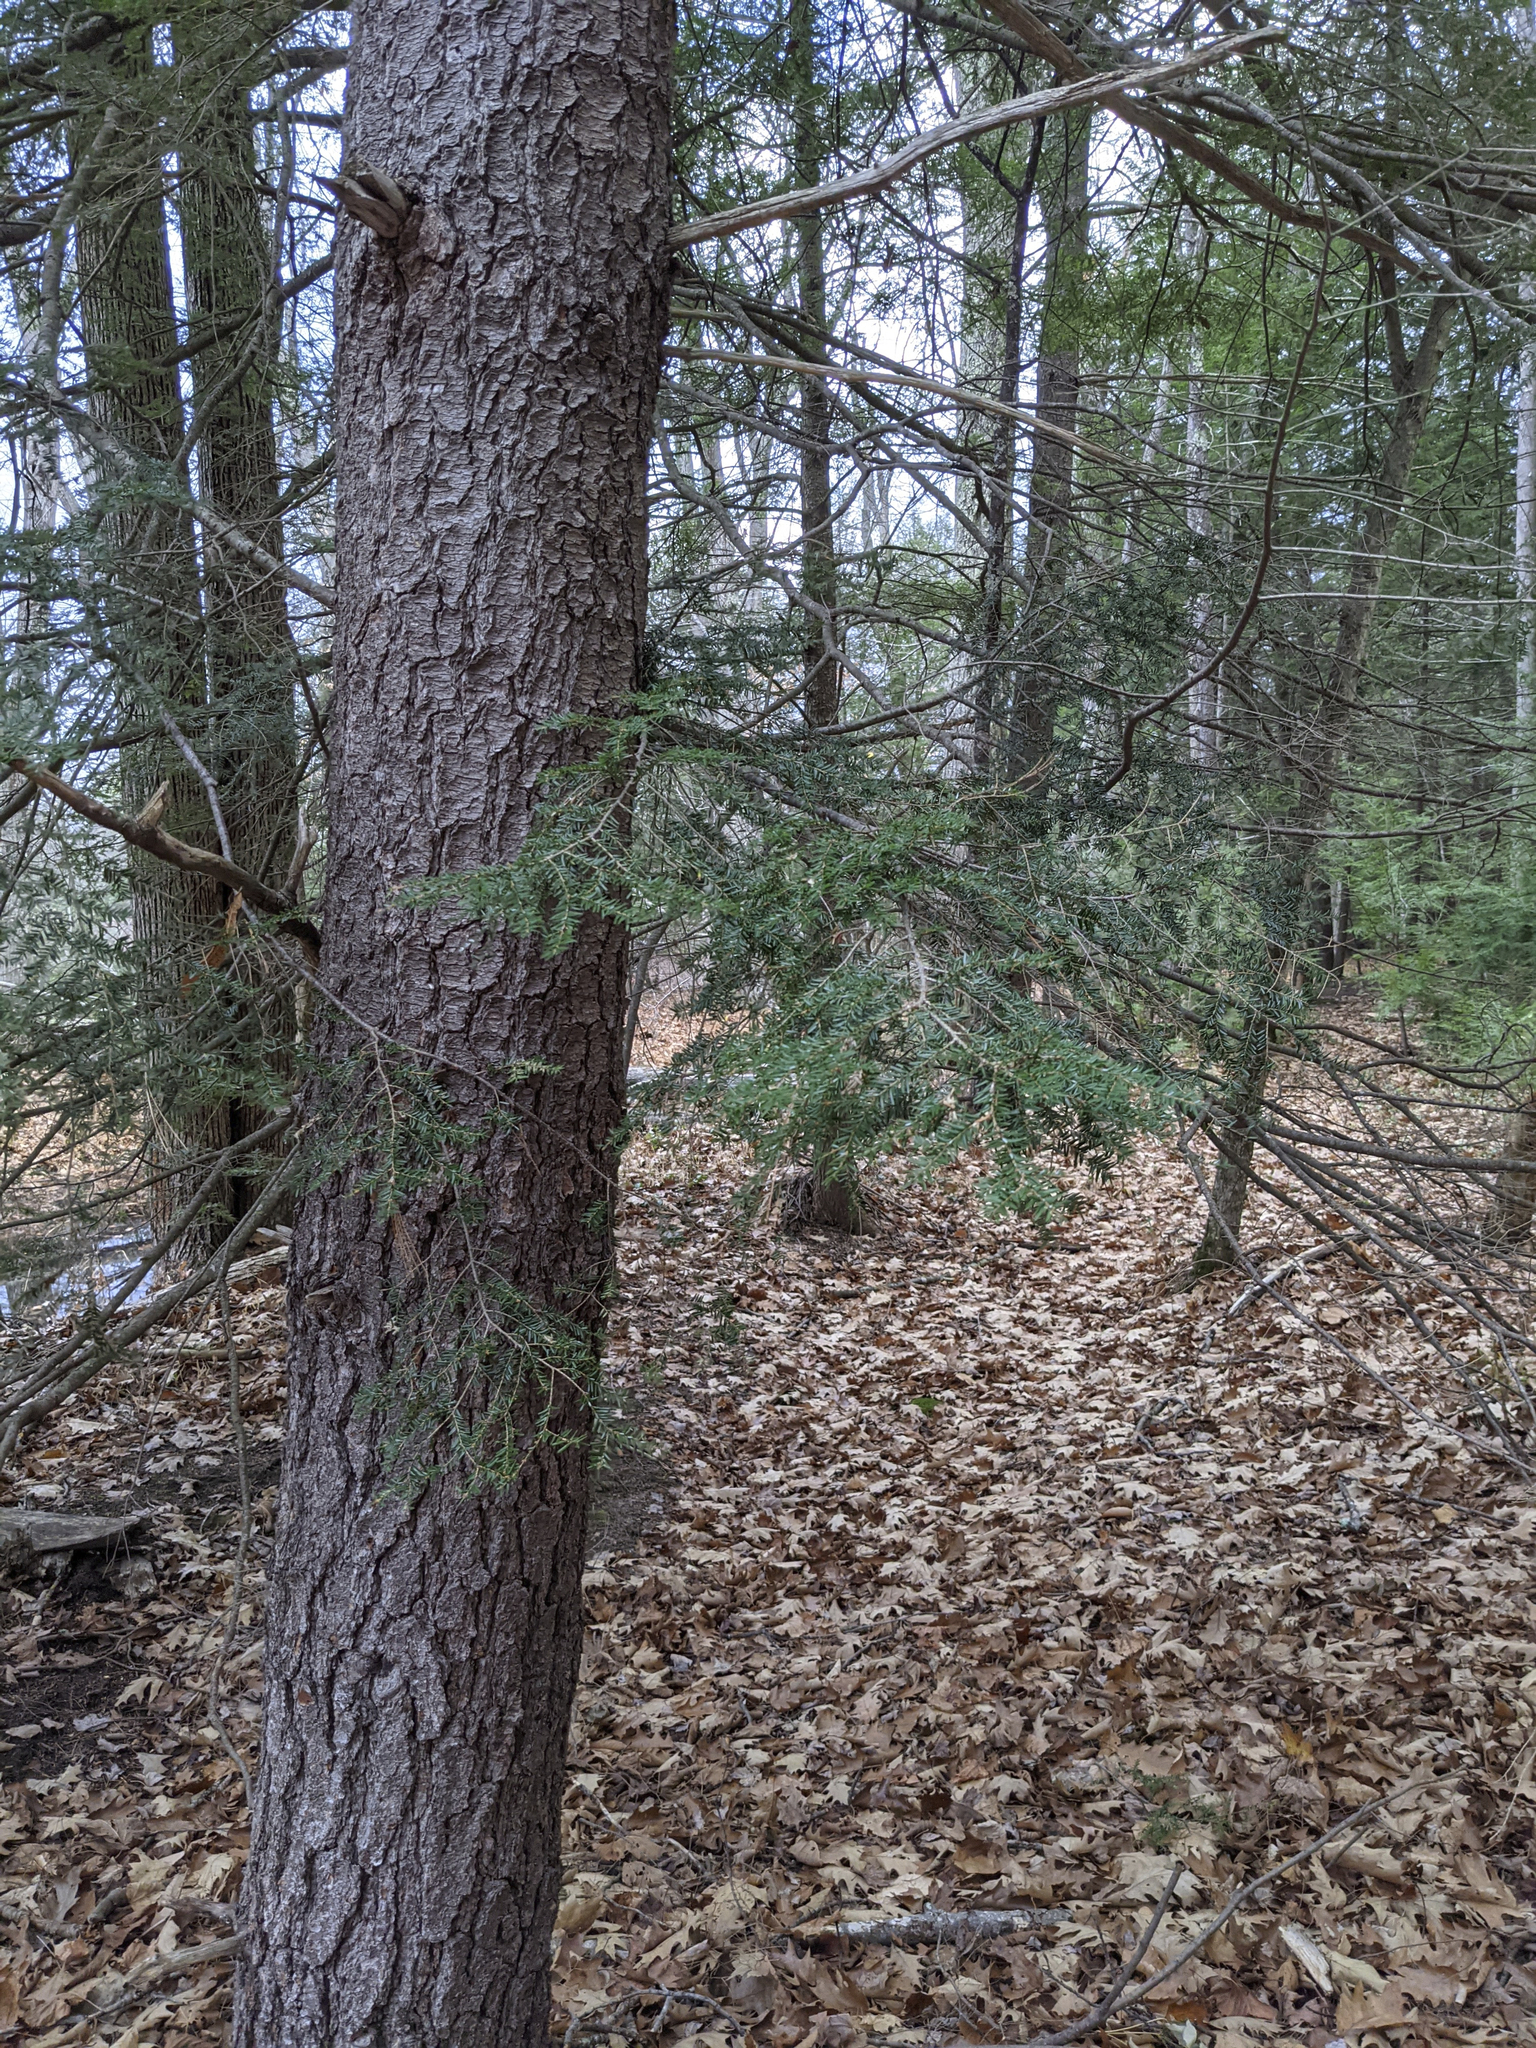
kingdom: Plantae
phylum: Tracheophyta
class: Pinopsida
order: Pinales
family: Pinaceae
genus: Tsuga
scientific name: Tsuga canadensis
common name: Eastern hemlock
